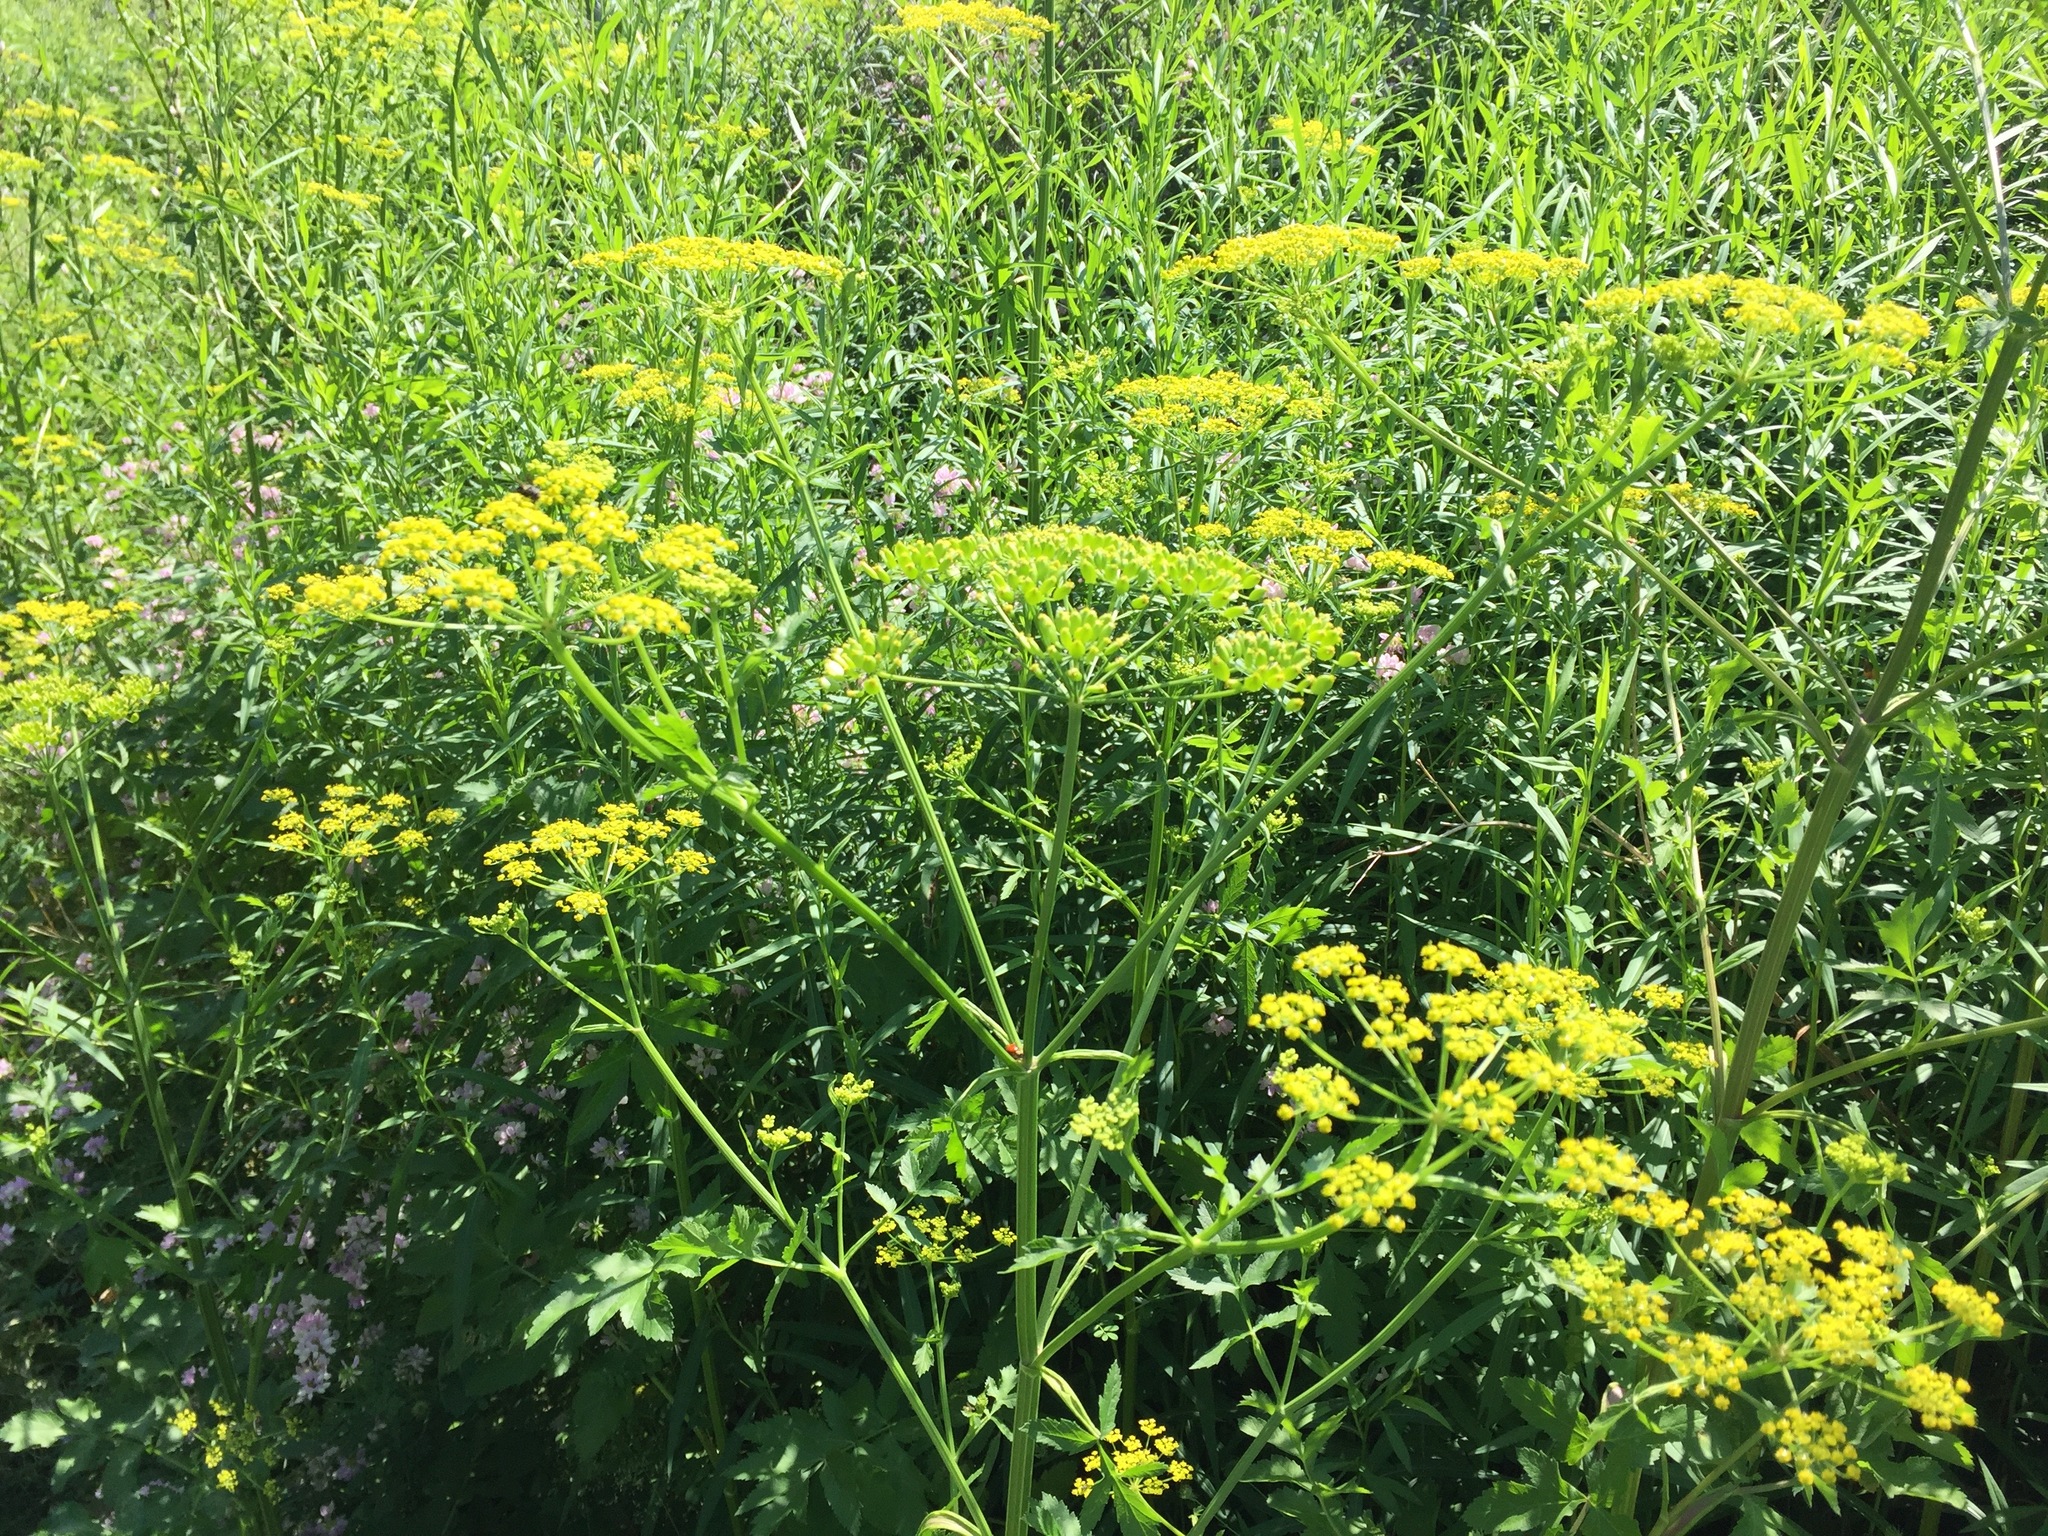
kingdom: Plantae
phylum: Tracheophyta
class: Magnoliopsida
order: Apiales
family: Apiaceae
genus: Pastinaca
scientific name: Pastinaca sativa
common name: Wild parsnip
